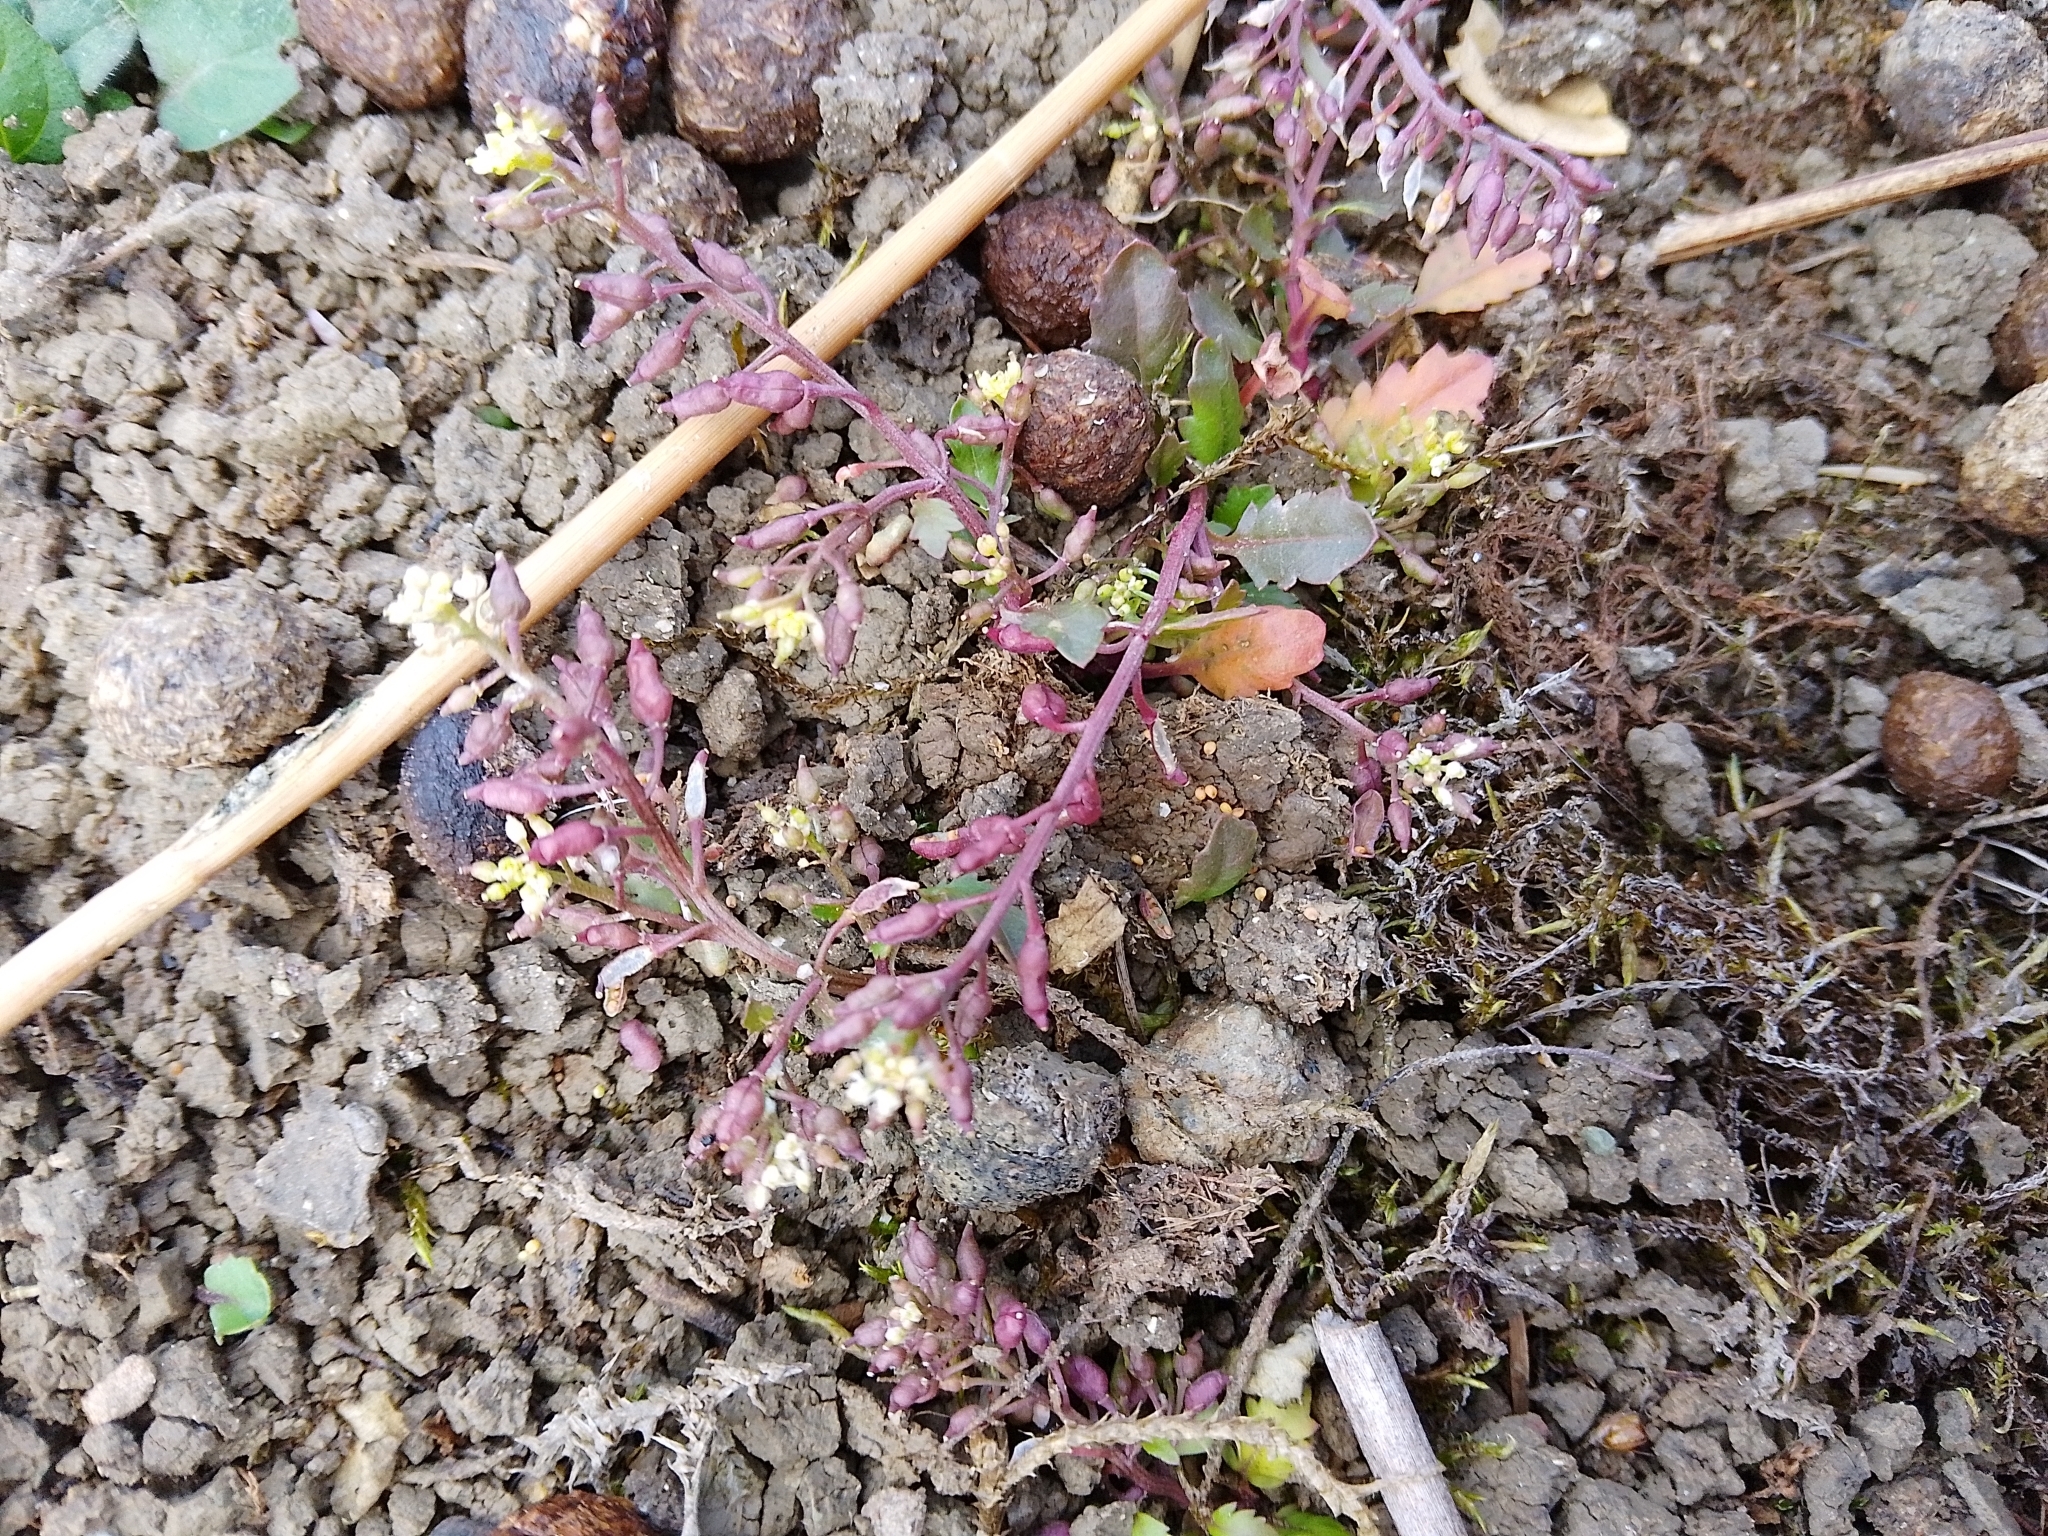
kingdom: Plantae
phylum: Tracheophyta
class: Magnoliopsida
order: Brassicales
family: Brassicaceae
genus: Rorippa
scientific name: Rorippa islandica
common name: Marsh cress
